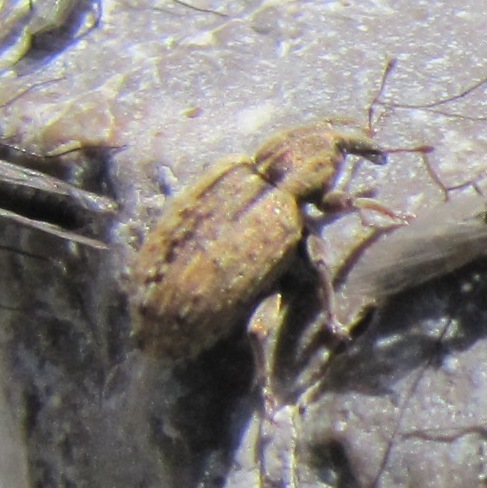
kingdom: Animalia
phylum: Arthropoda
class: Insecta
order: Coleoptera
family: Curculionidae
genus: Hypera
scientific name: Hypera postica
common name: Weevil
